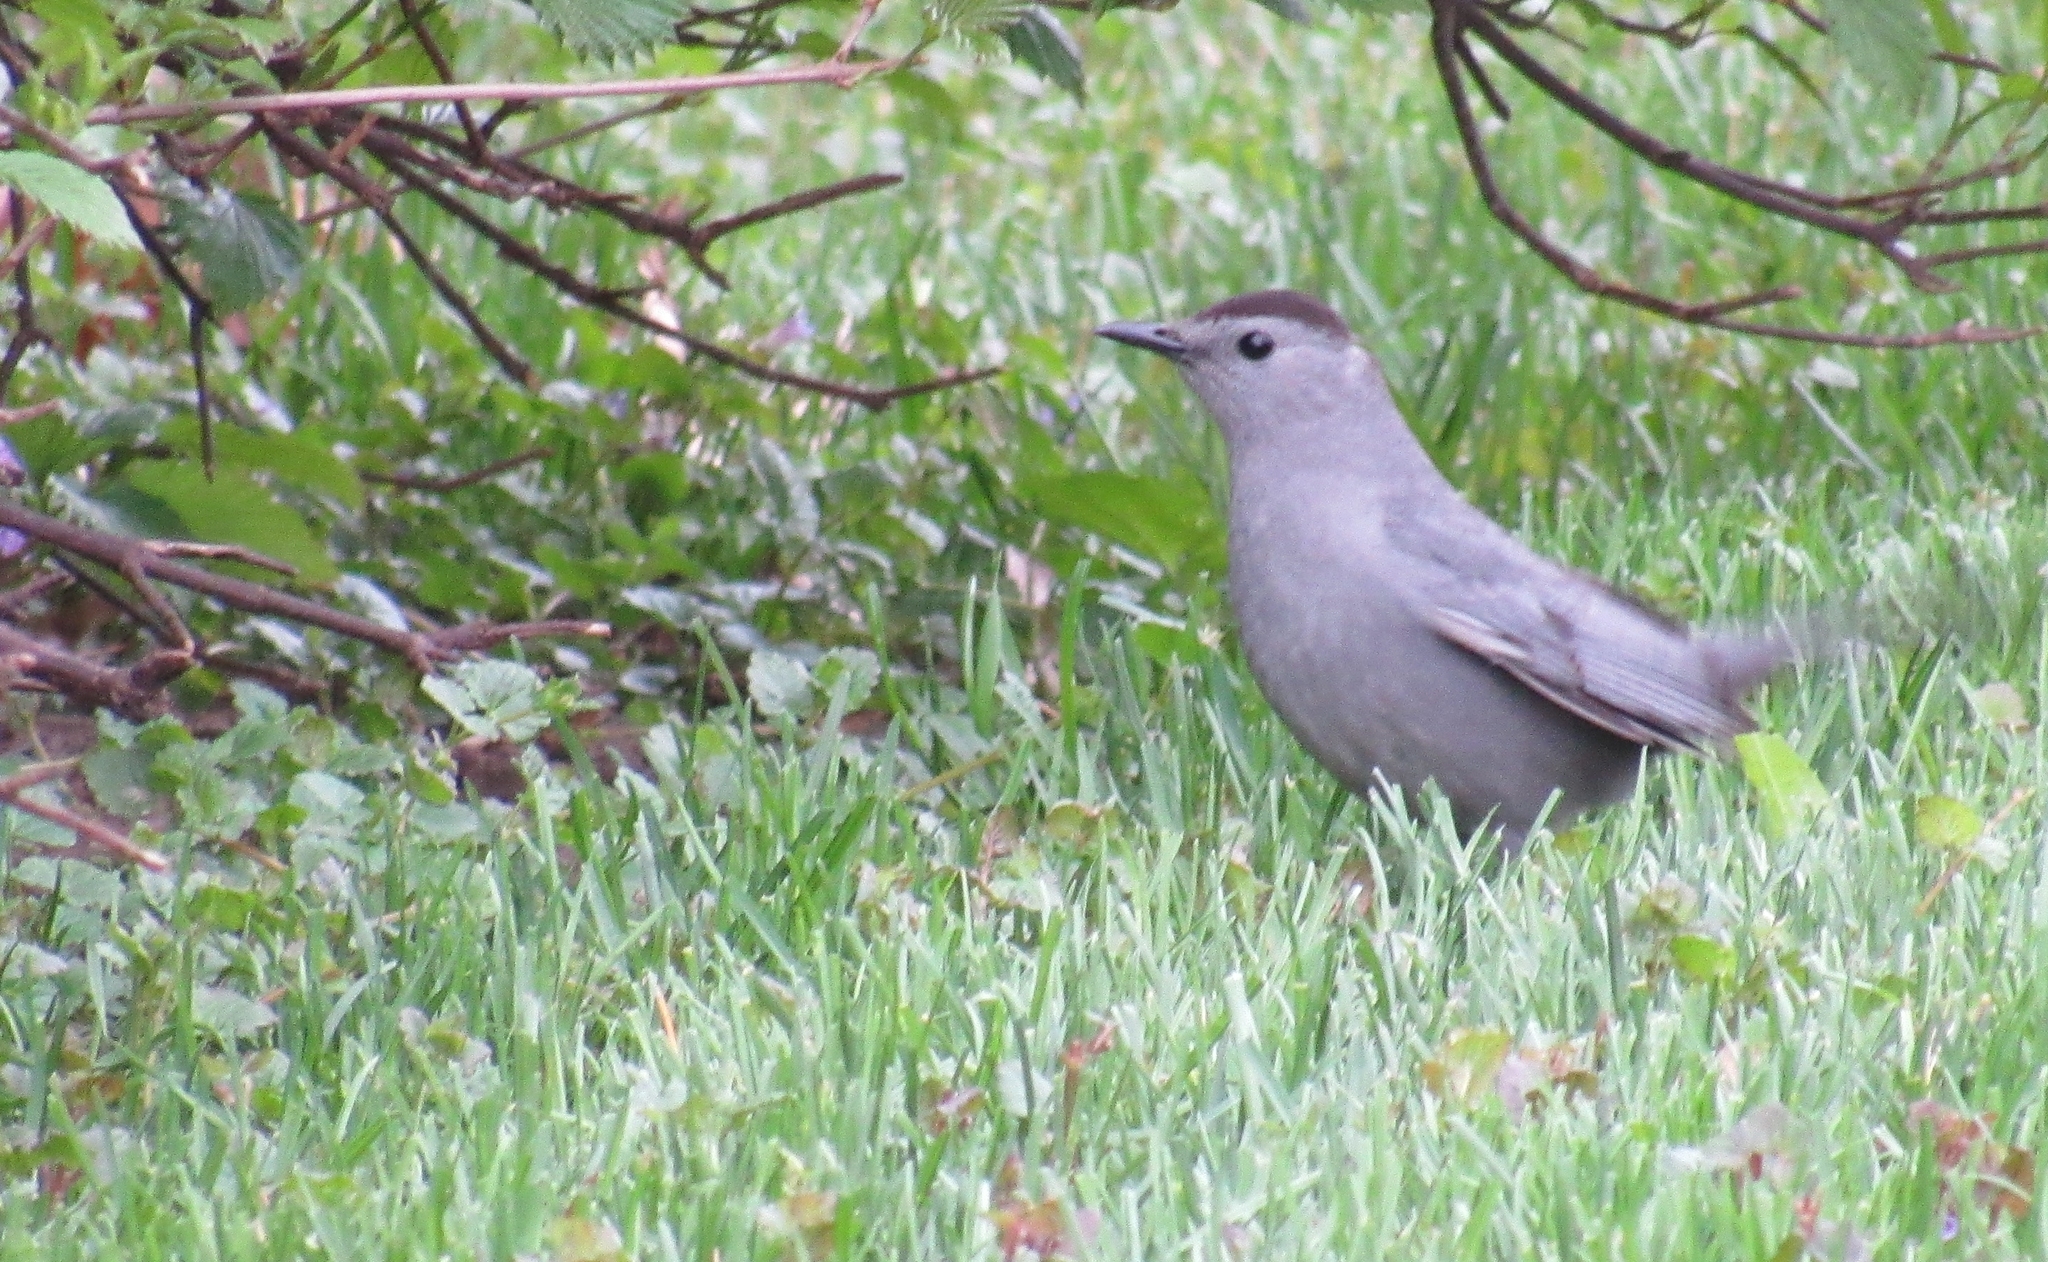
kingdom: Animalia
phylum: Chordata
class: Aves
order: Passeriformes
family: Mimidae
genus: Dumetella
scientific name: Dumetella carolinensis
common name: Gray catbird
